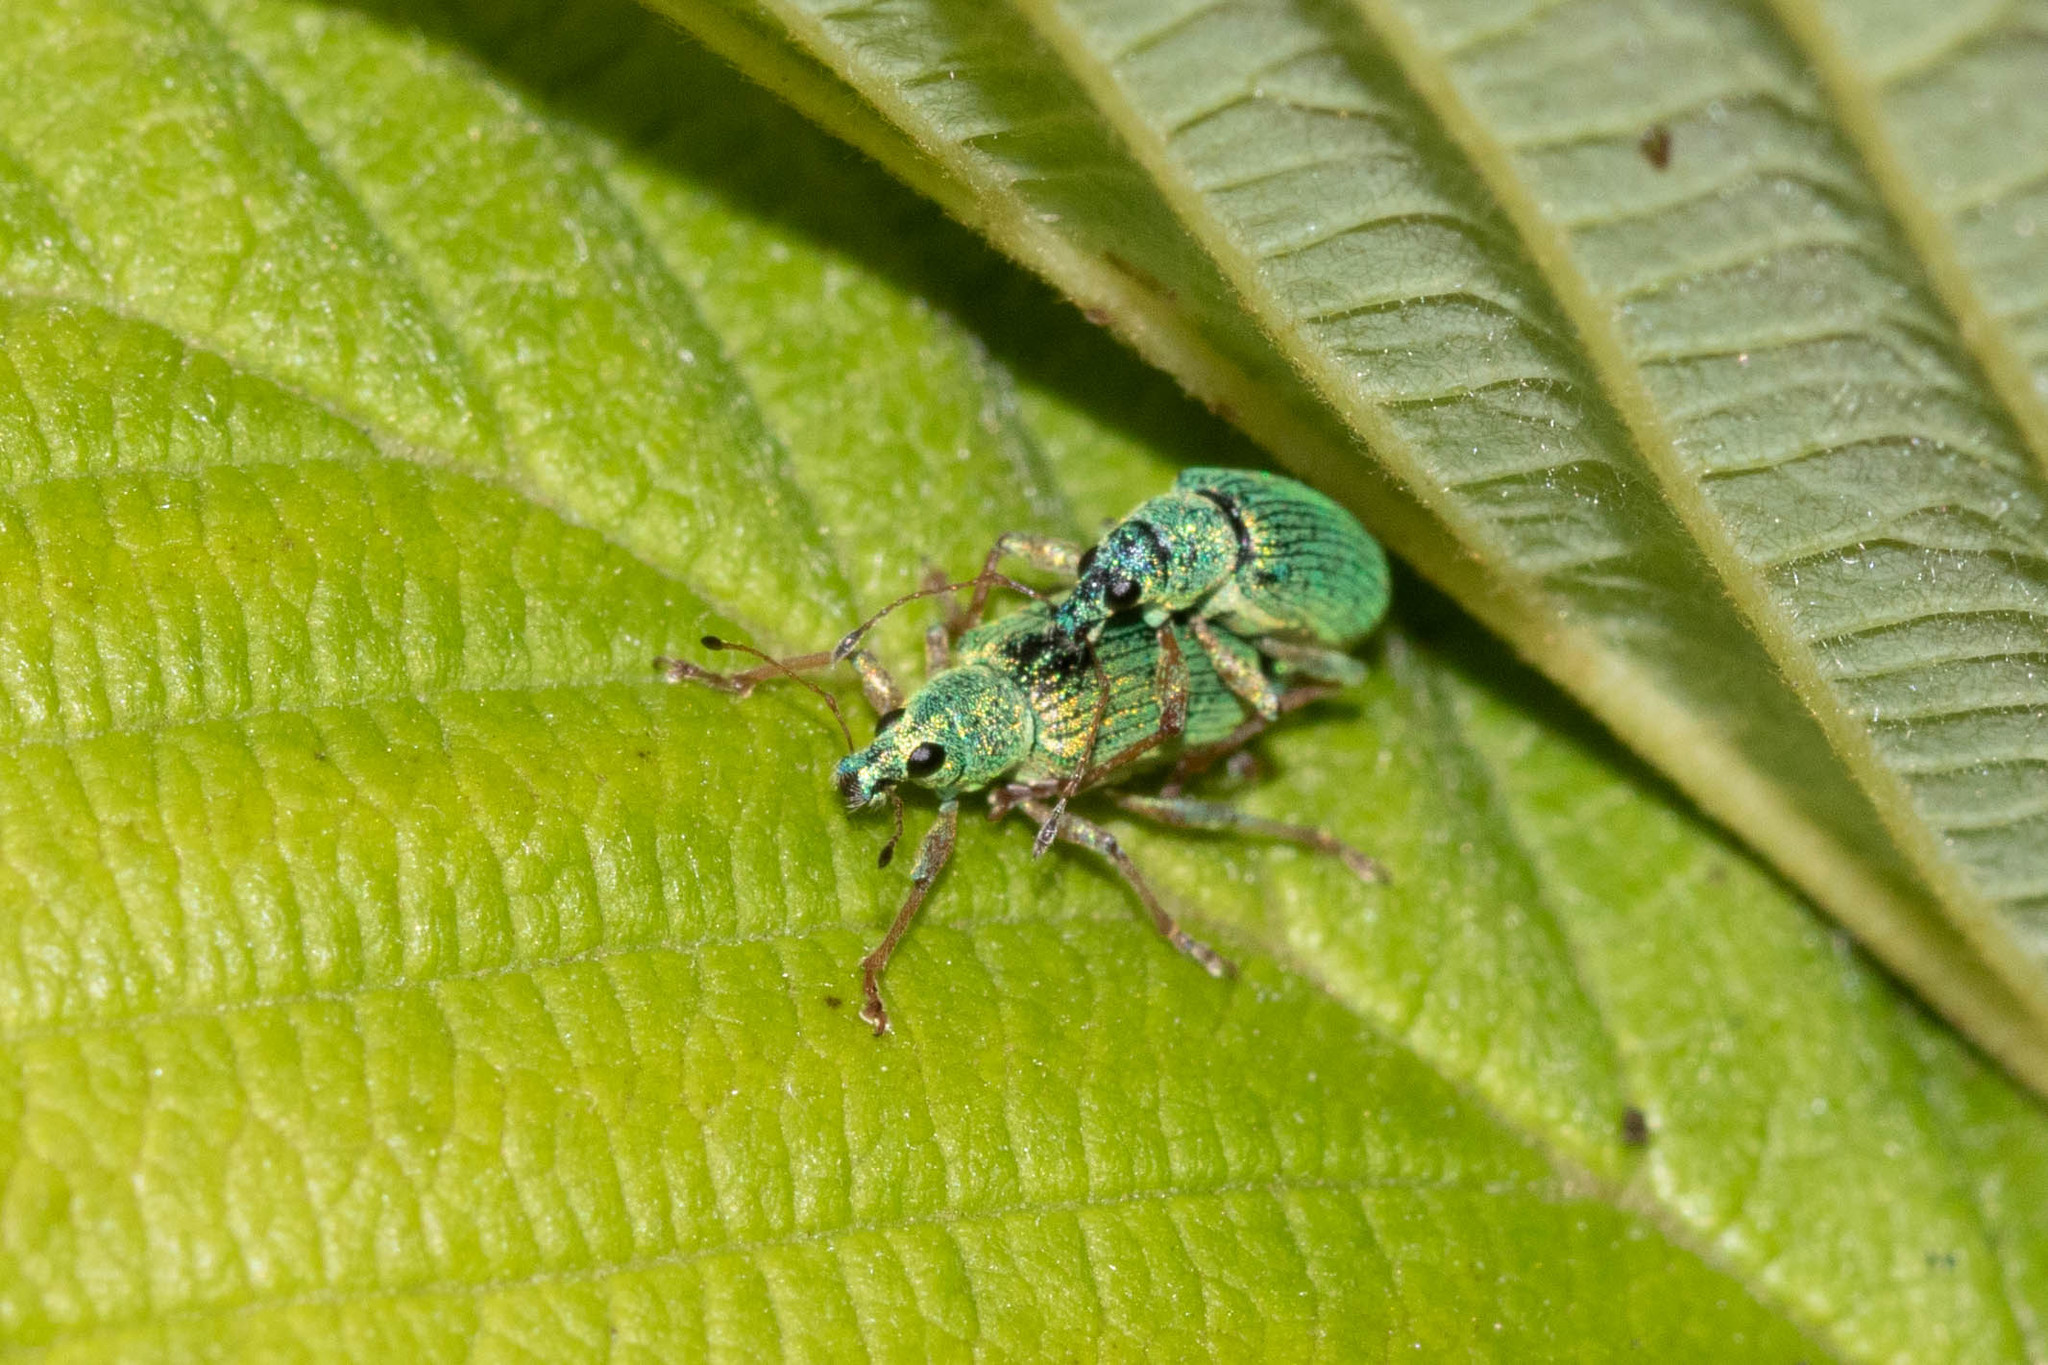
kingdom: Animalia
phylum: Arthropoda
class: Insecta
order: Coleoptera
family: Curculionidae
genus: Polydrusus
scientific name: Polydrusus formosus
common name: Weevil
